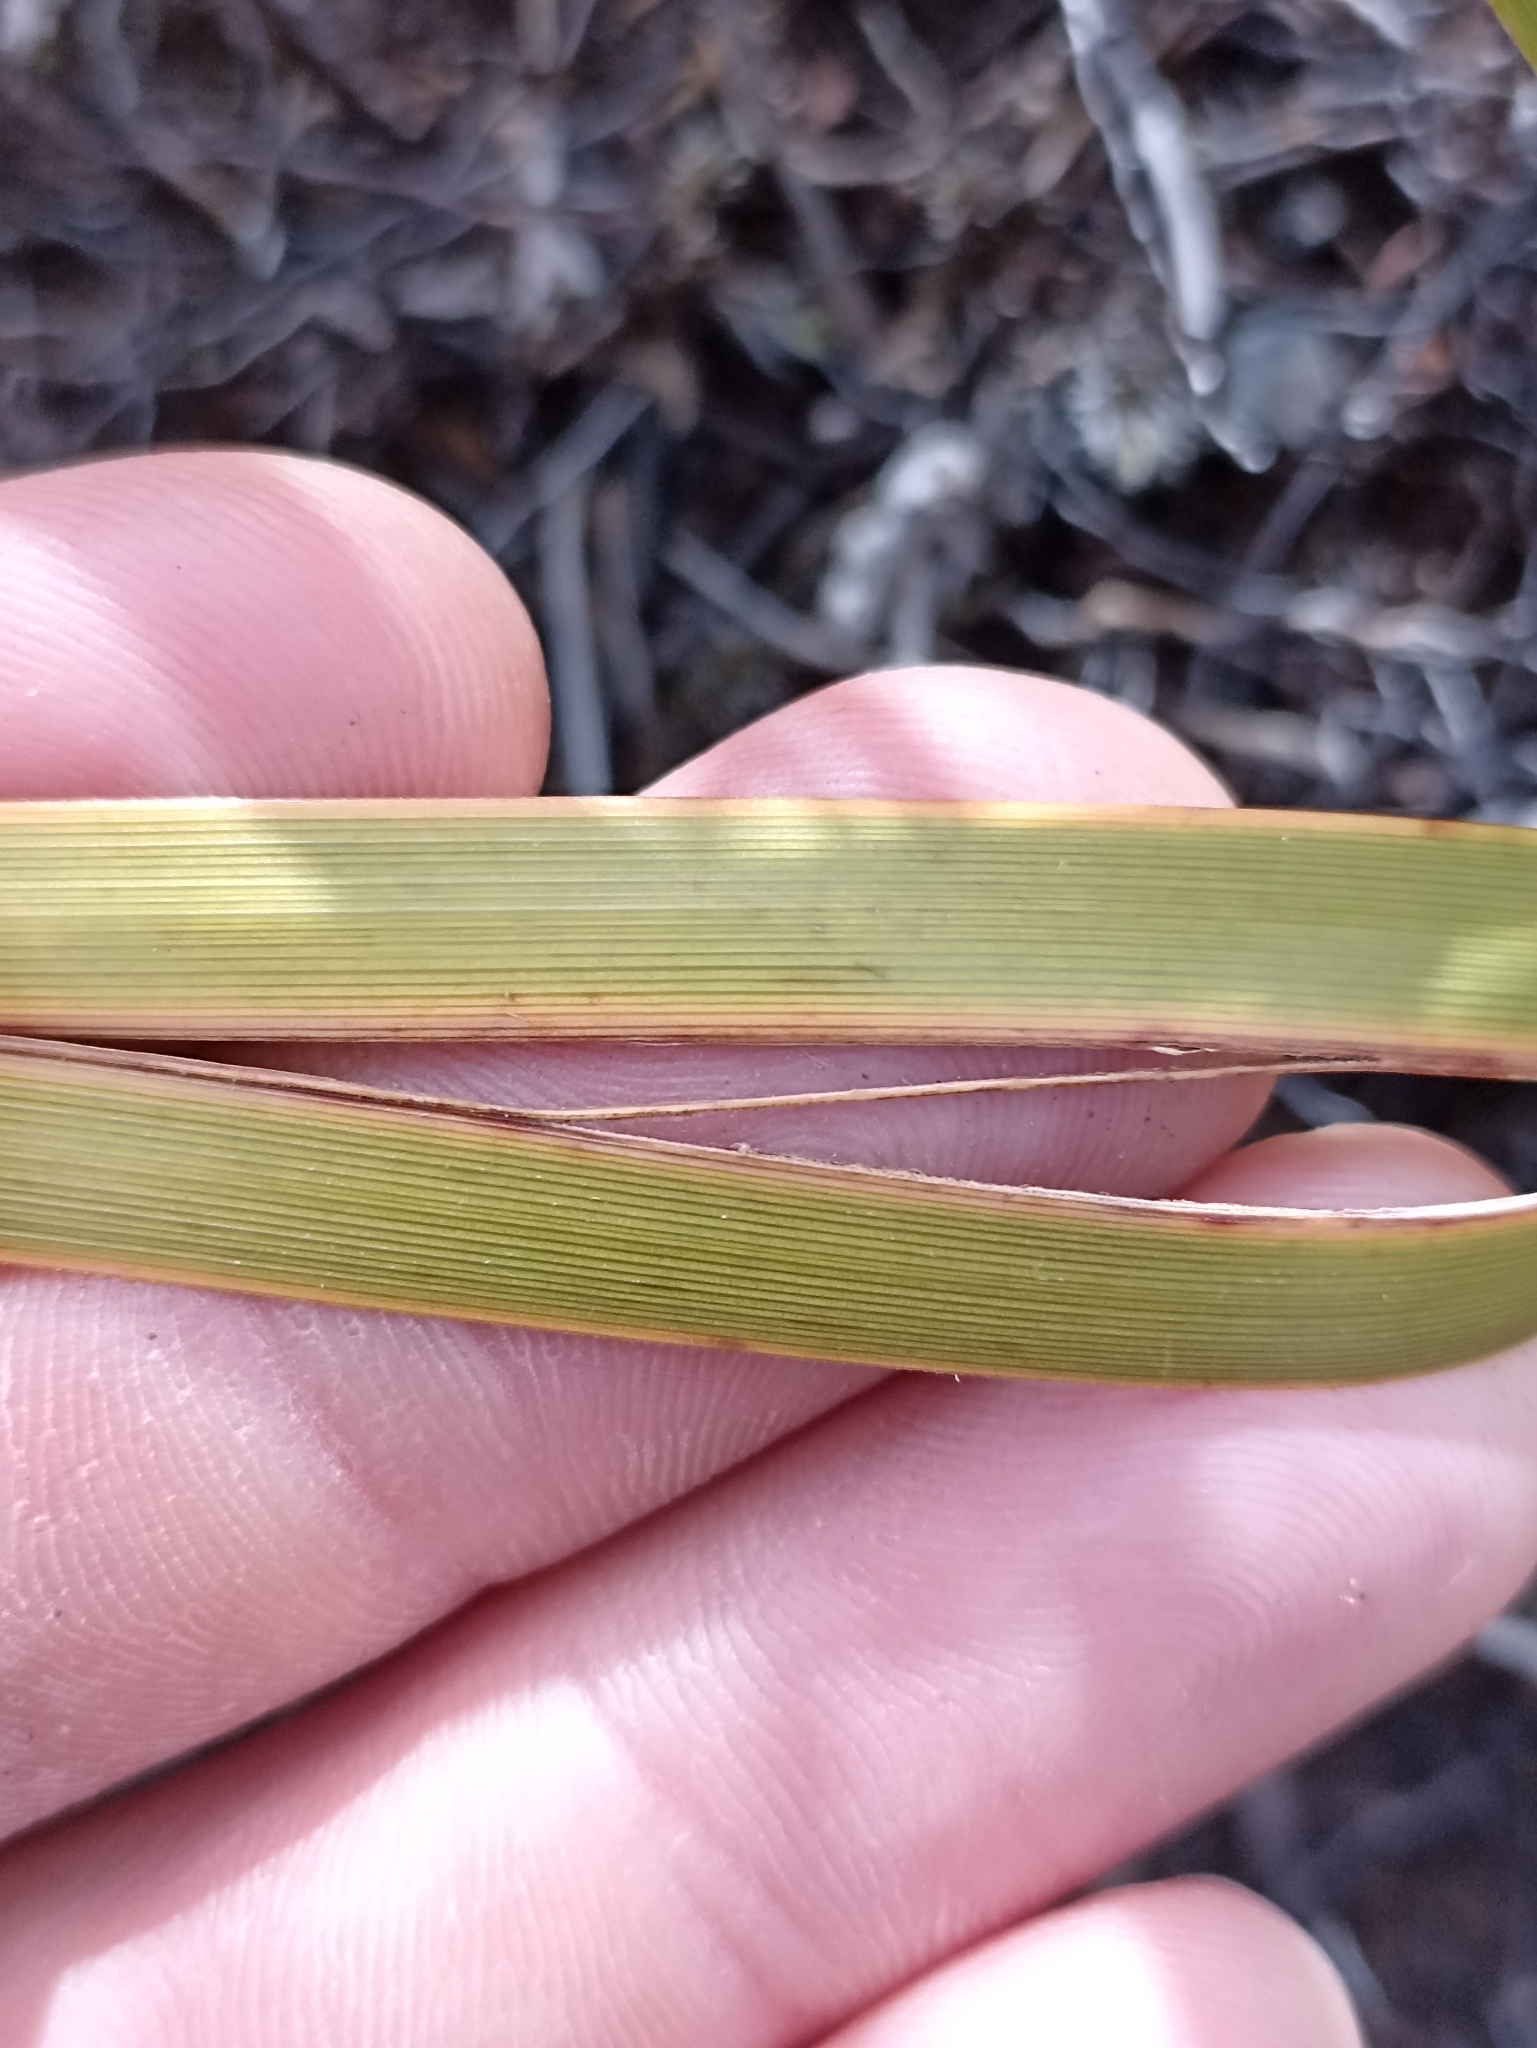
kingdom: Plantae
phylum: Tracheophyta
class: Liliopsida
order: Poales
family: Cyperaceae
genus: Carex
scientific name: Carex coriacea
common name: Rautahi
